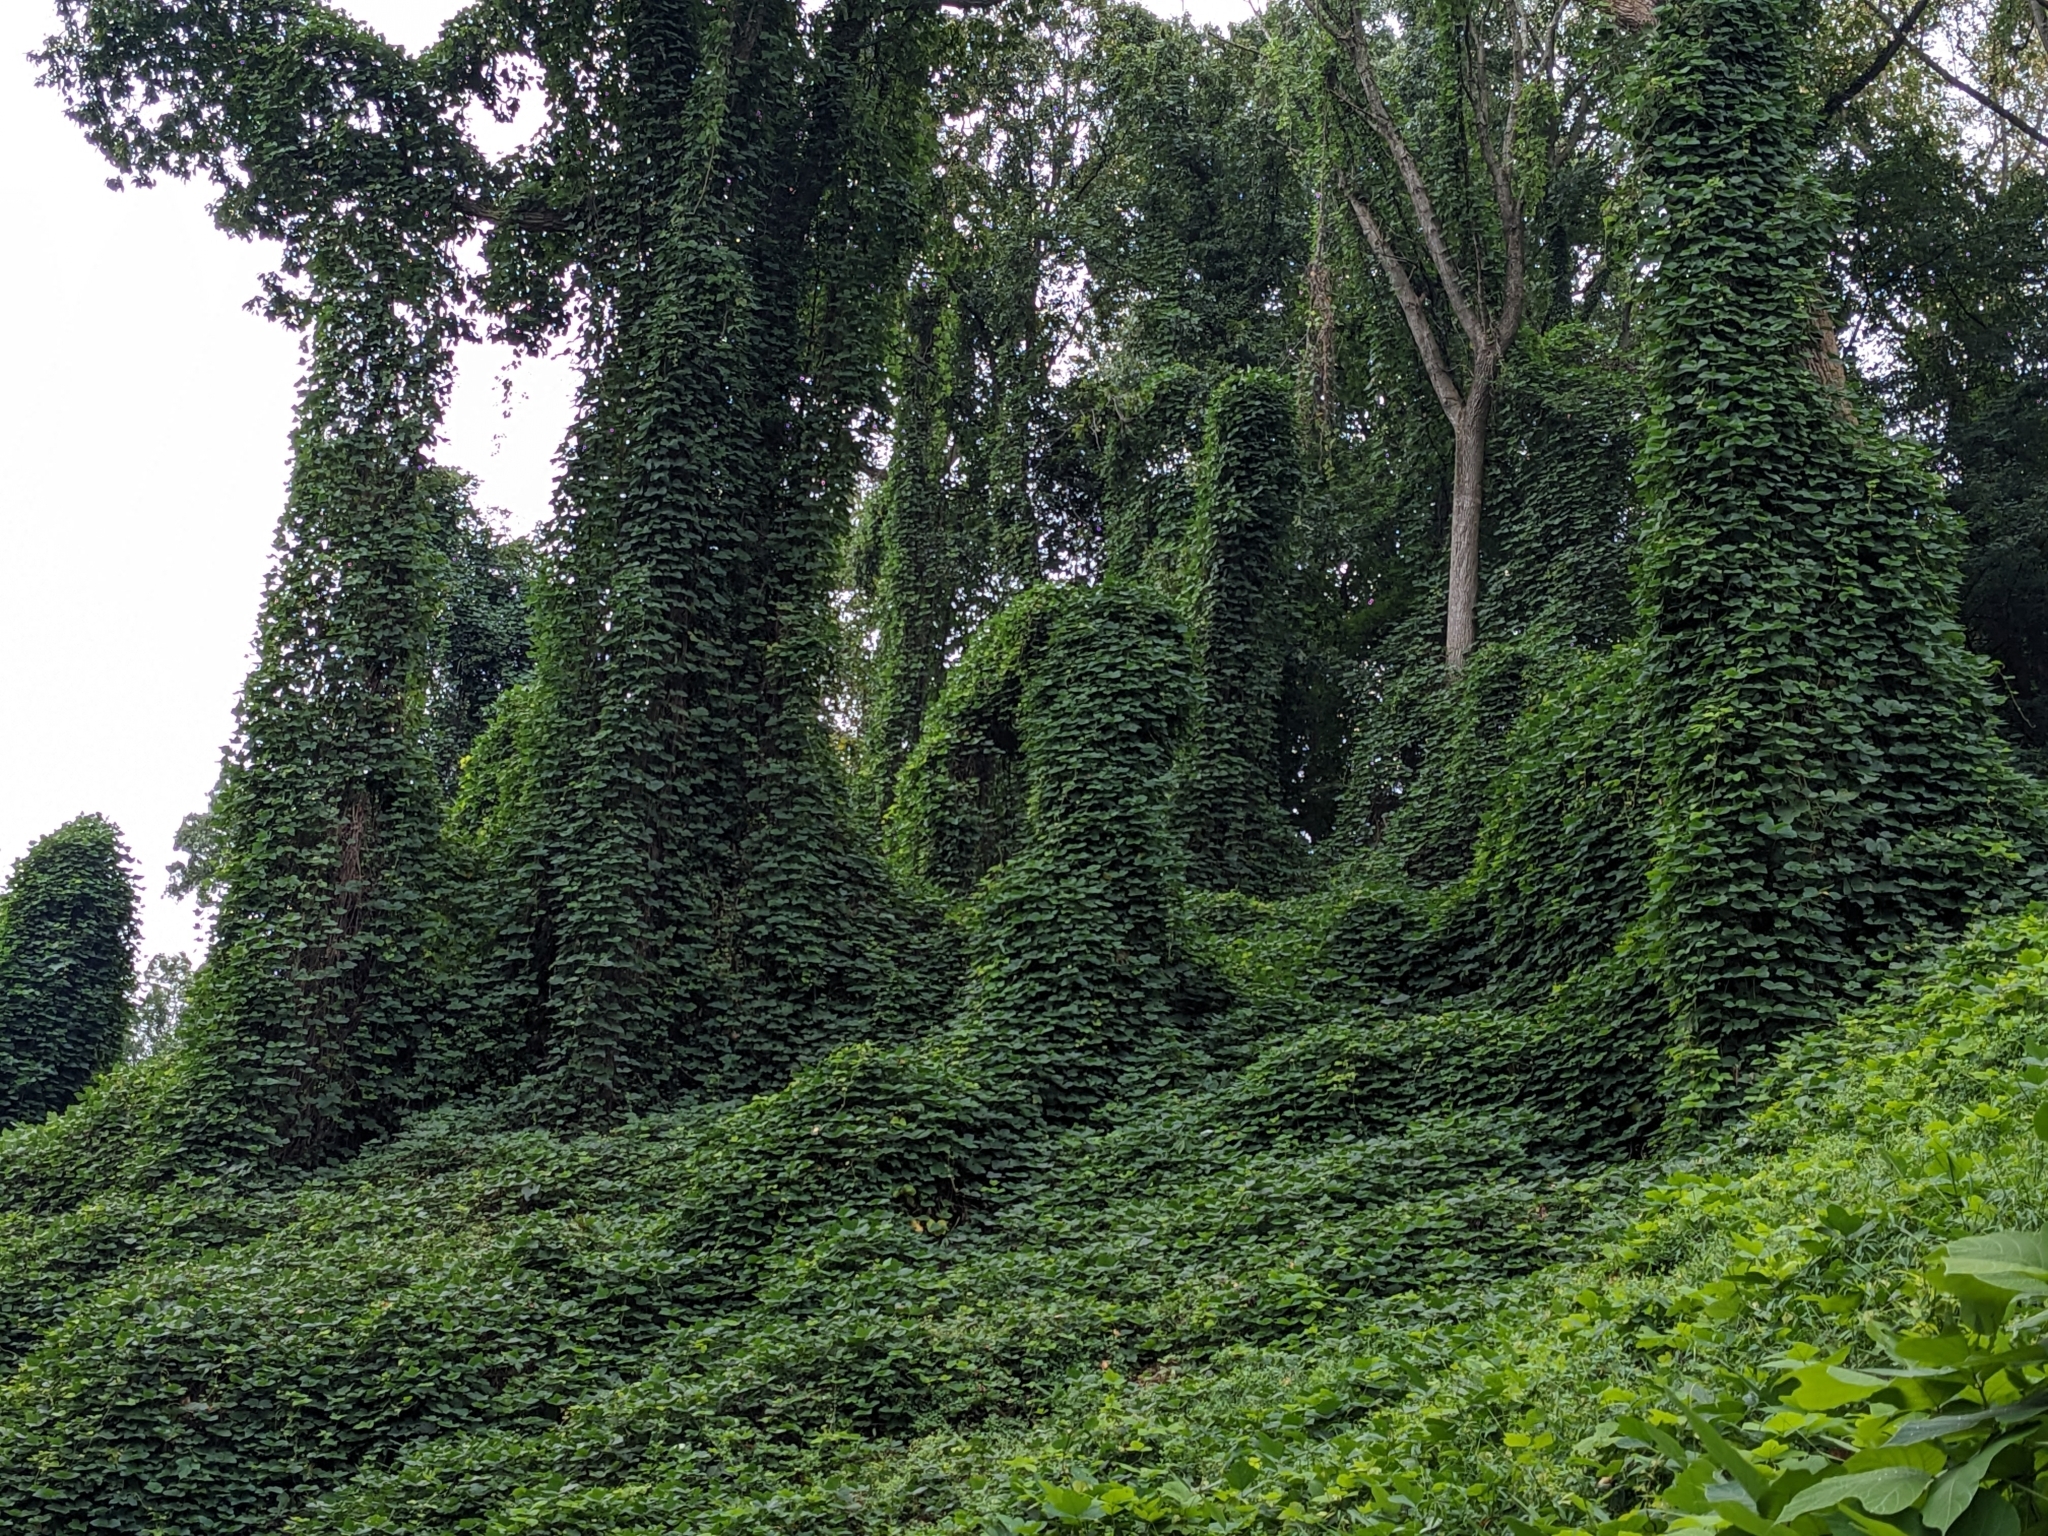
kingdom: Plantae
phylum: Tracheophyta
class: Magnoliopsida
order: Fabales
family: Fabaceae
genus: Pueraria
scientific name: Pueraria montana
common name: Kudzu
